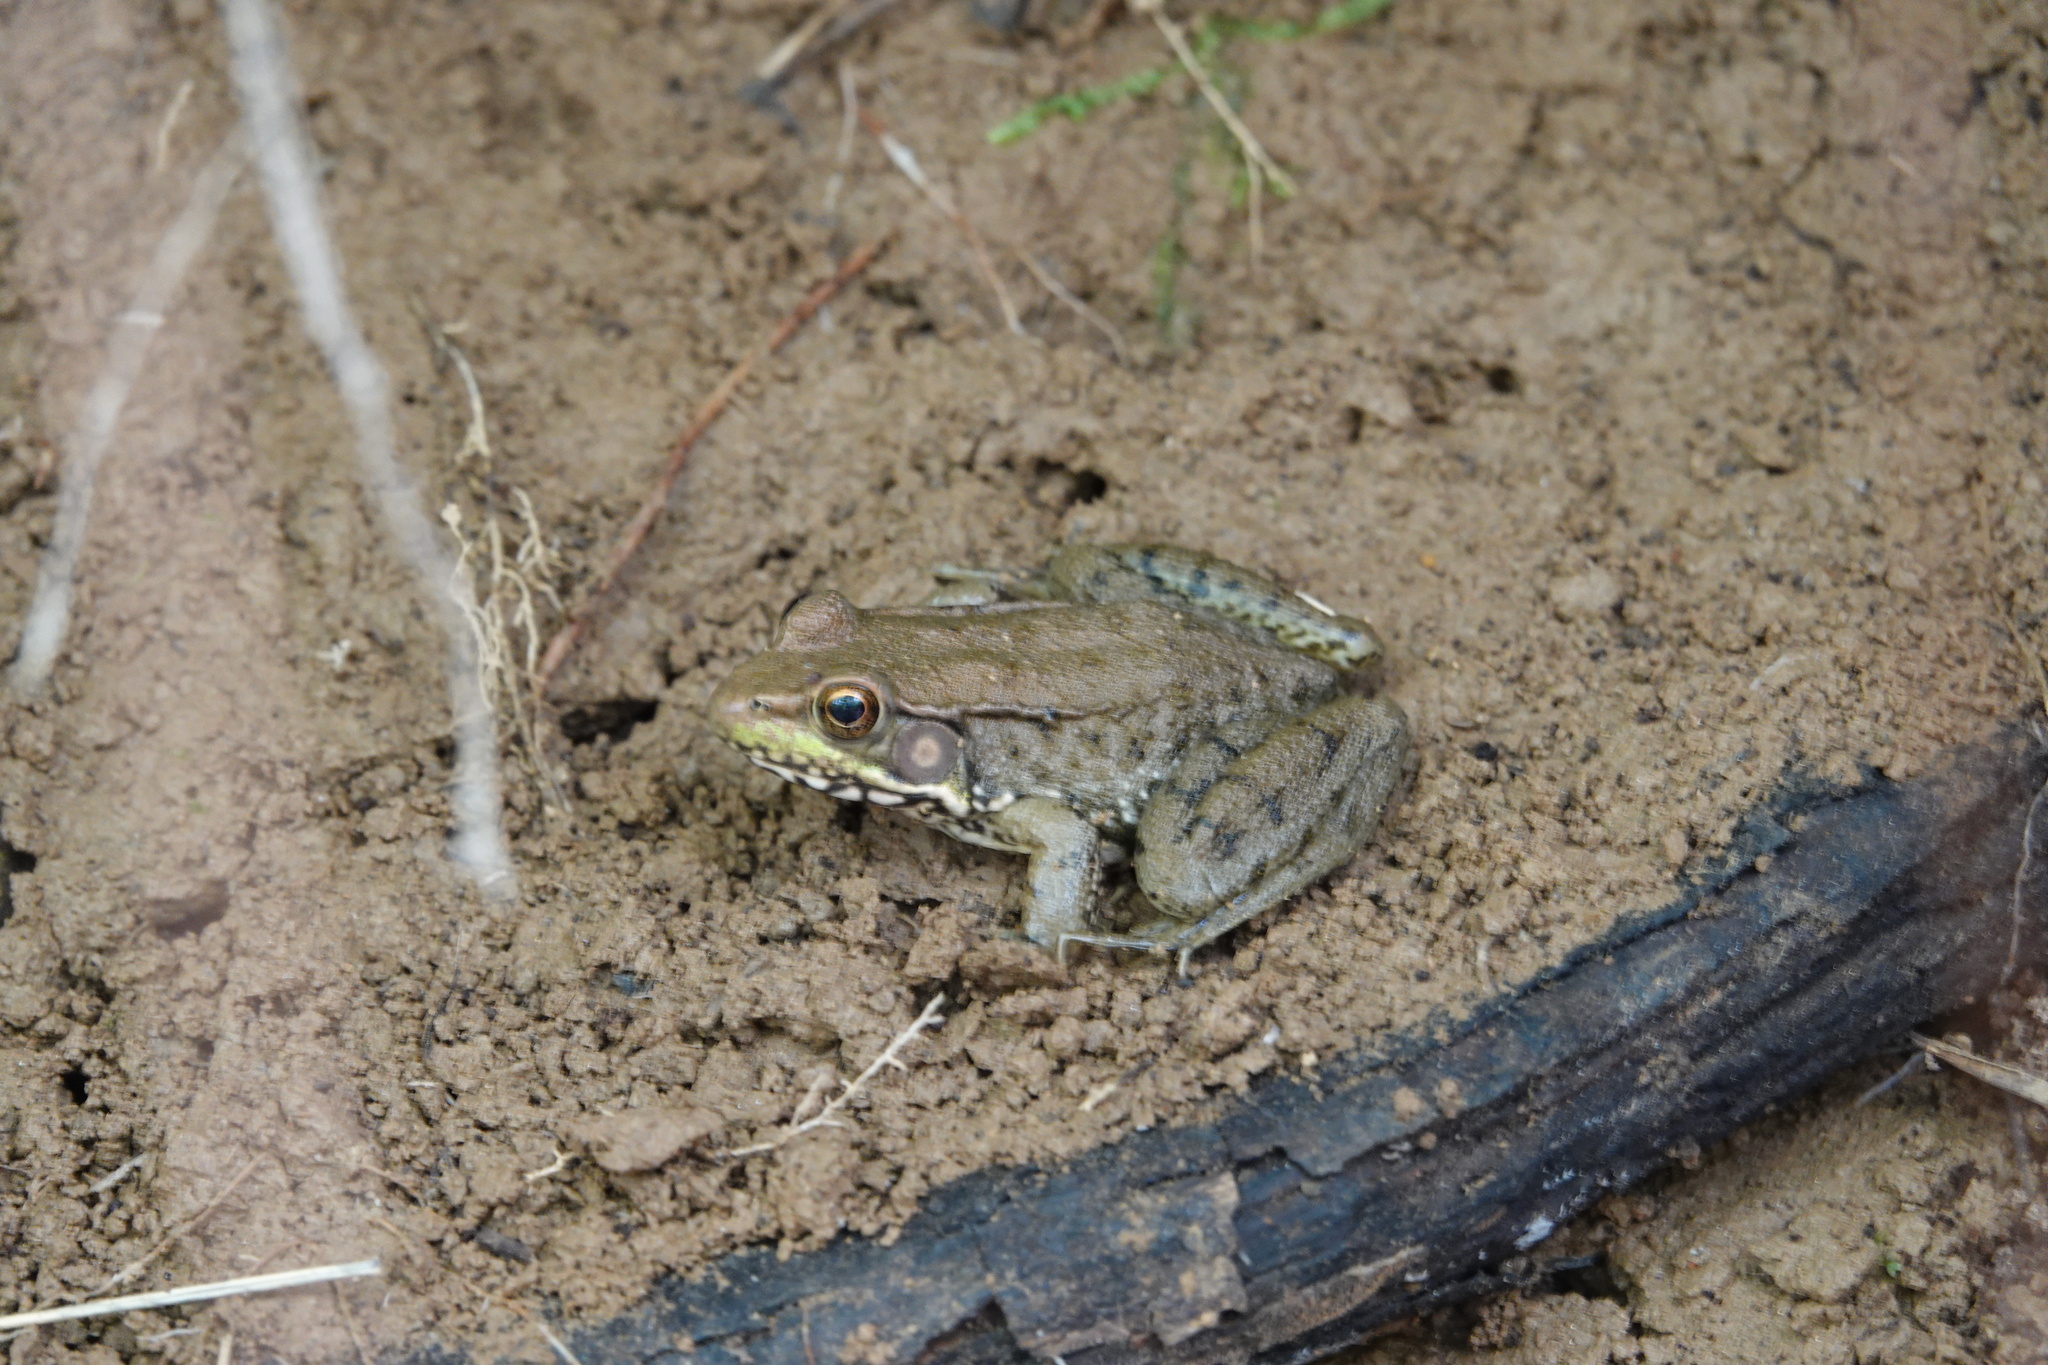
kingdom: Animalia
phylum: Chordata
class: Amphibia
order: Anura
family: Ranidae
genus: Lithobates
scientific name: Lithobates clamitans
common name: Green frog
